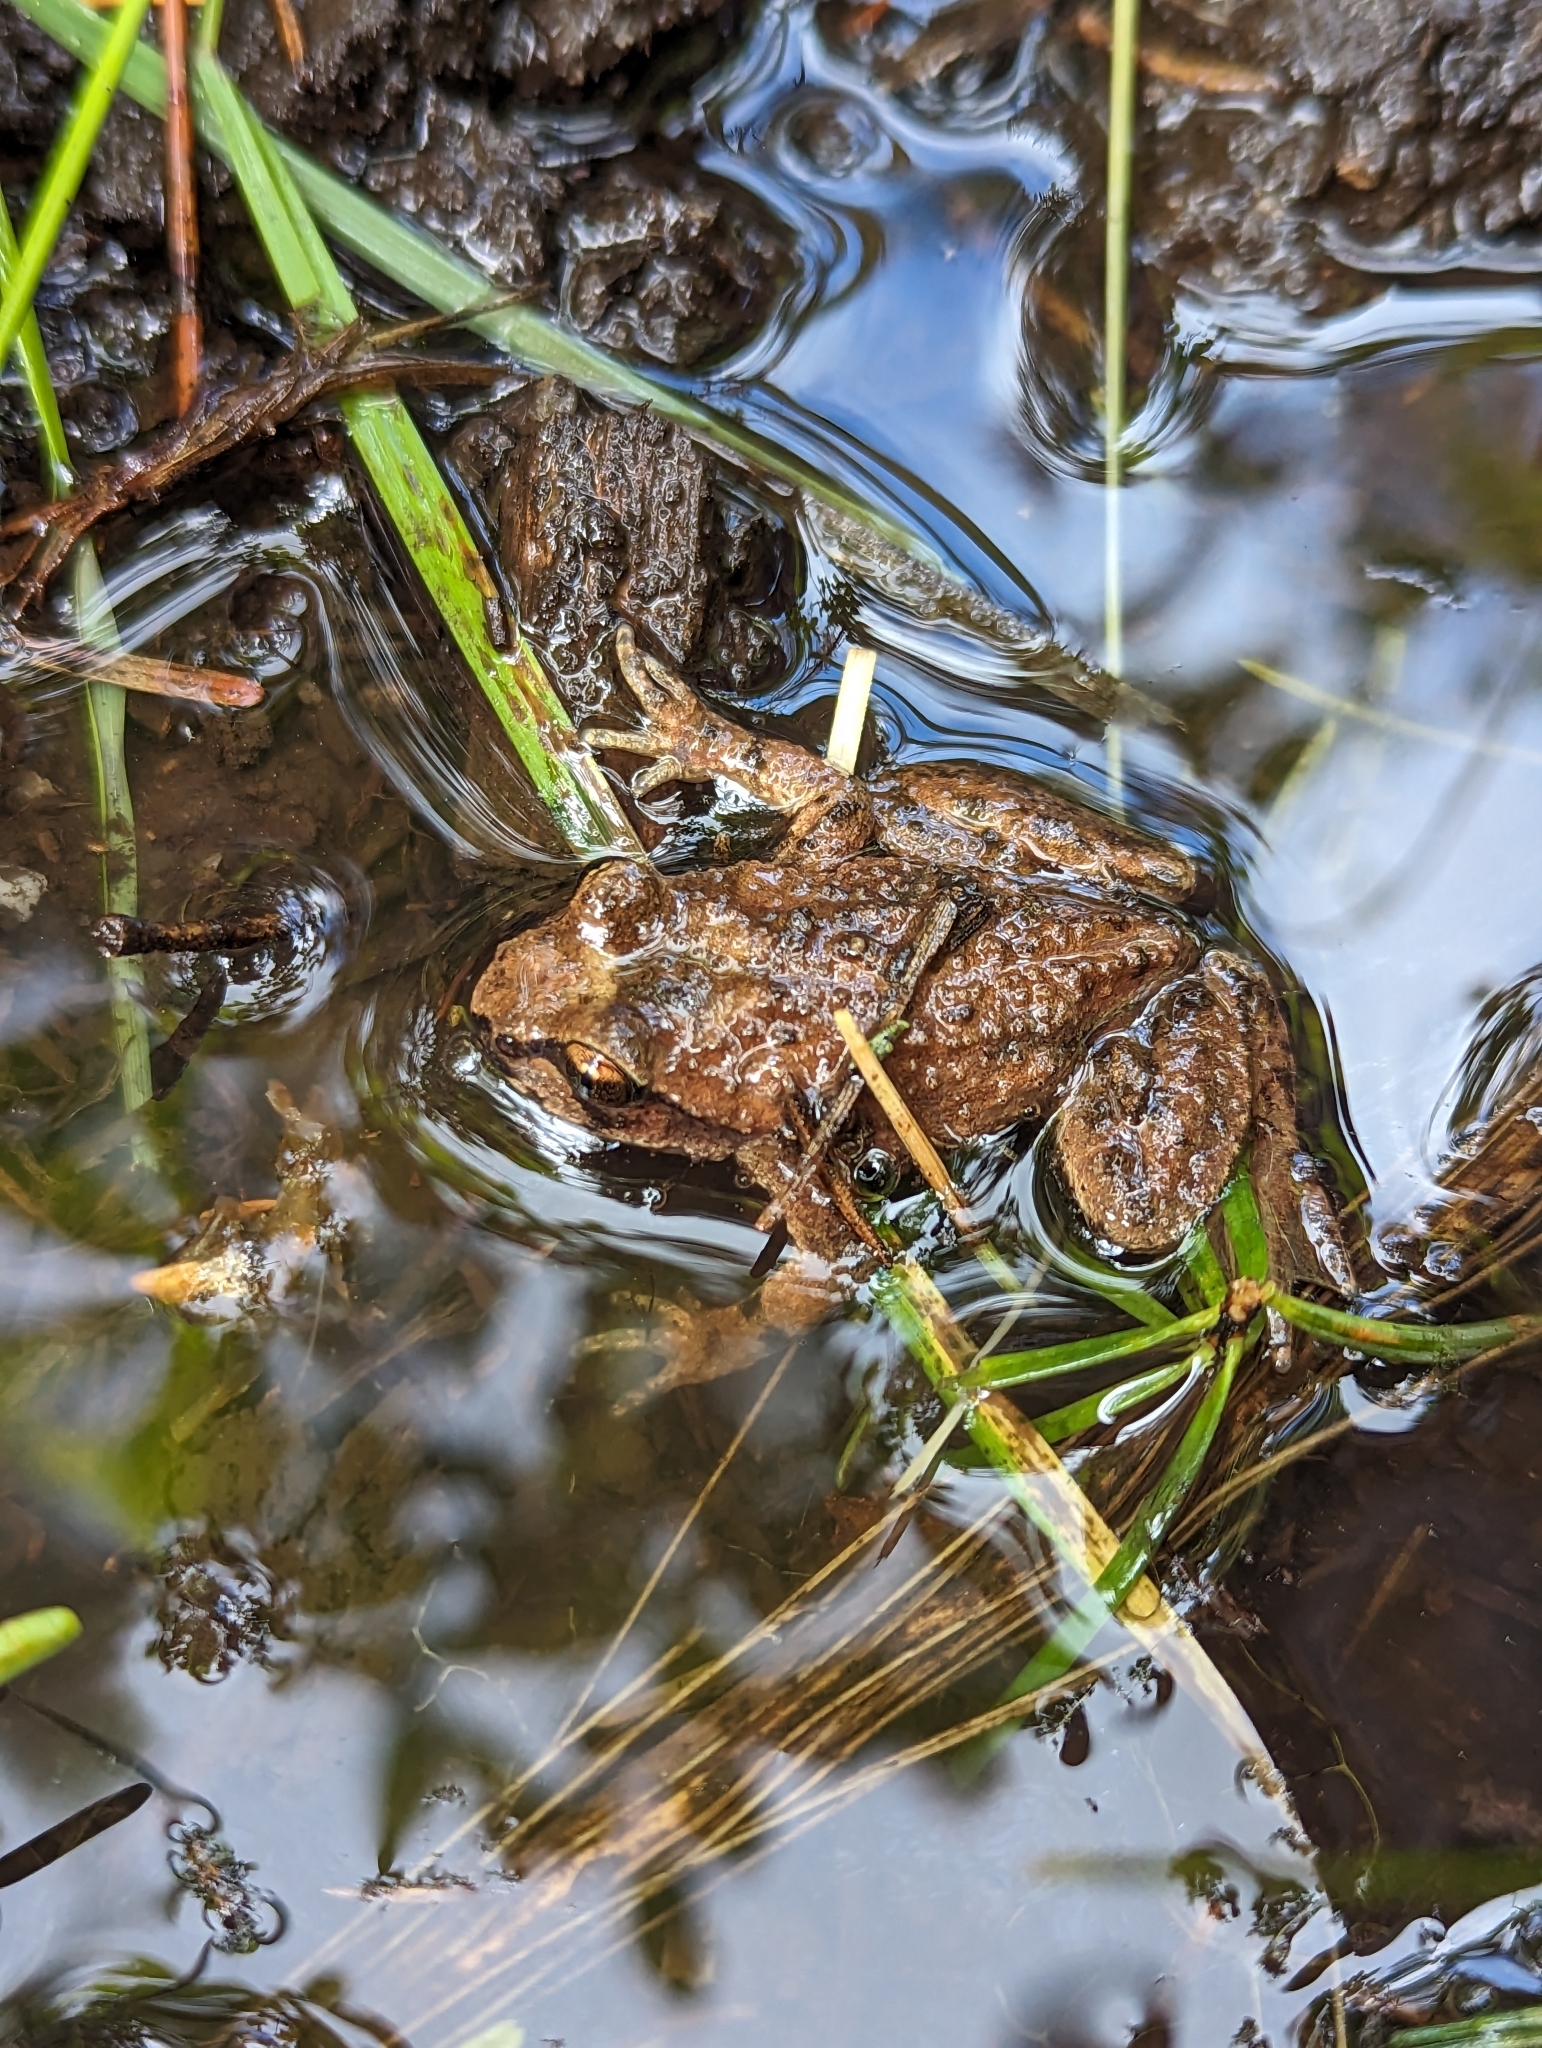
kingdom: Animalia
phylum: Chordata
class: Amphibia
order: Anura
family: Ascaphidae
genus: Ascaphus
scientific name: Ascaphus montanus
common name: Rocky mountain tailed frog
